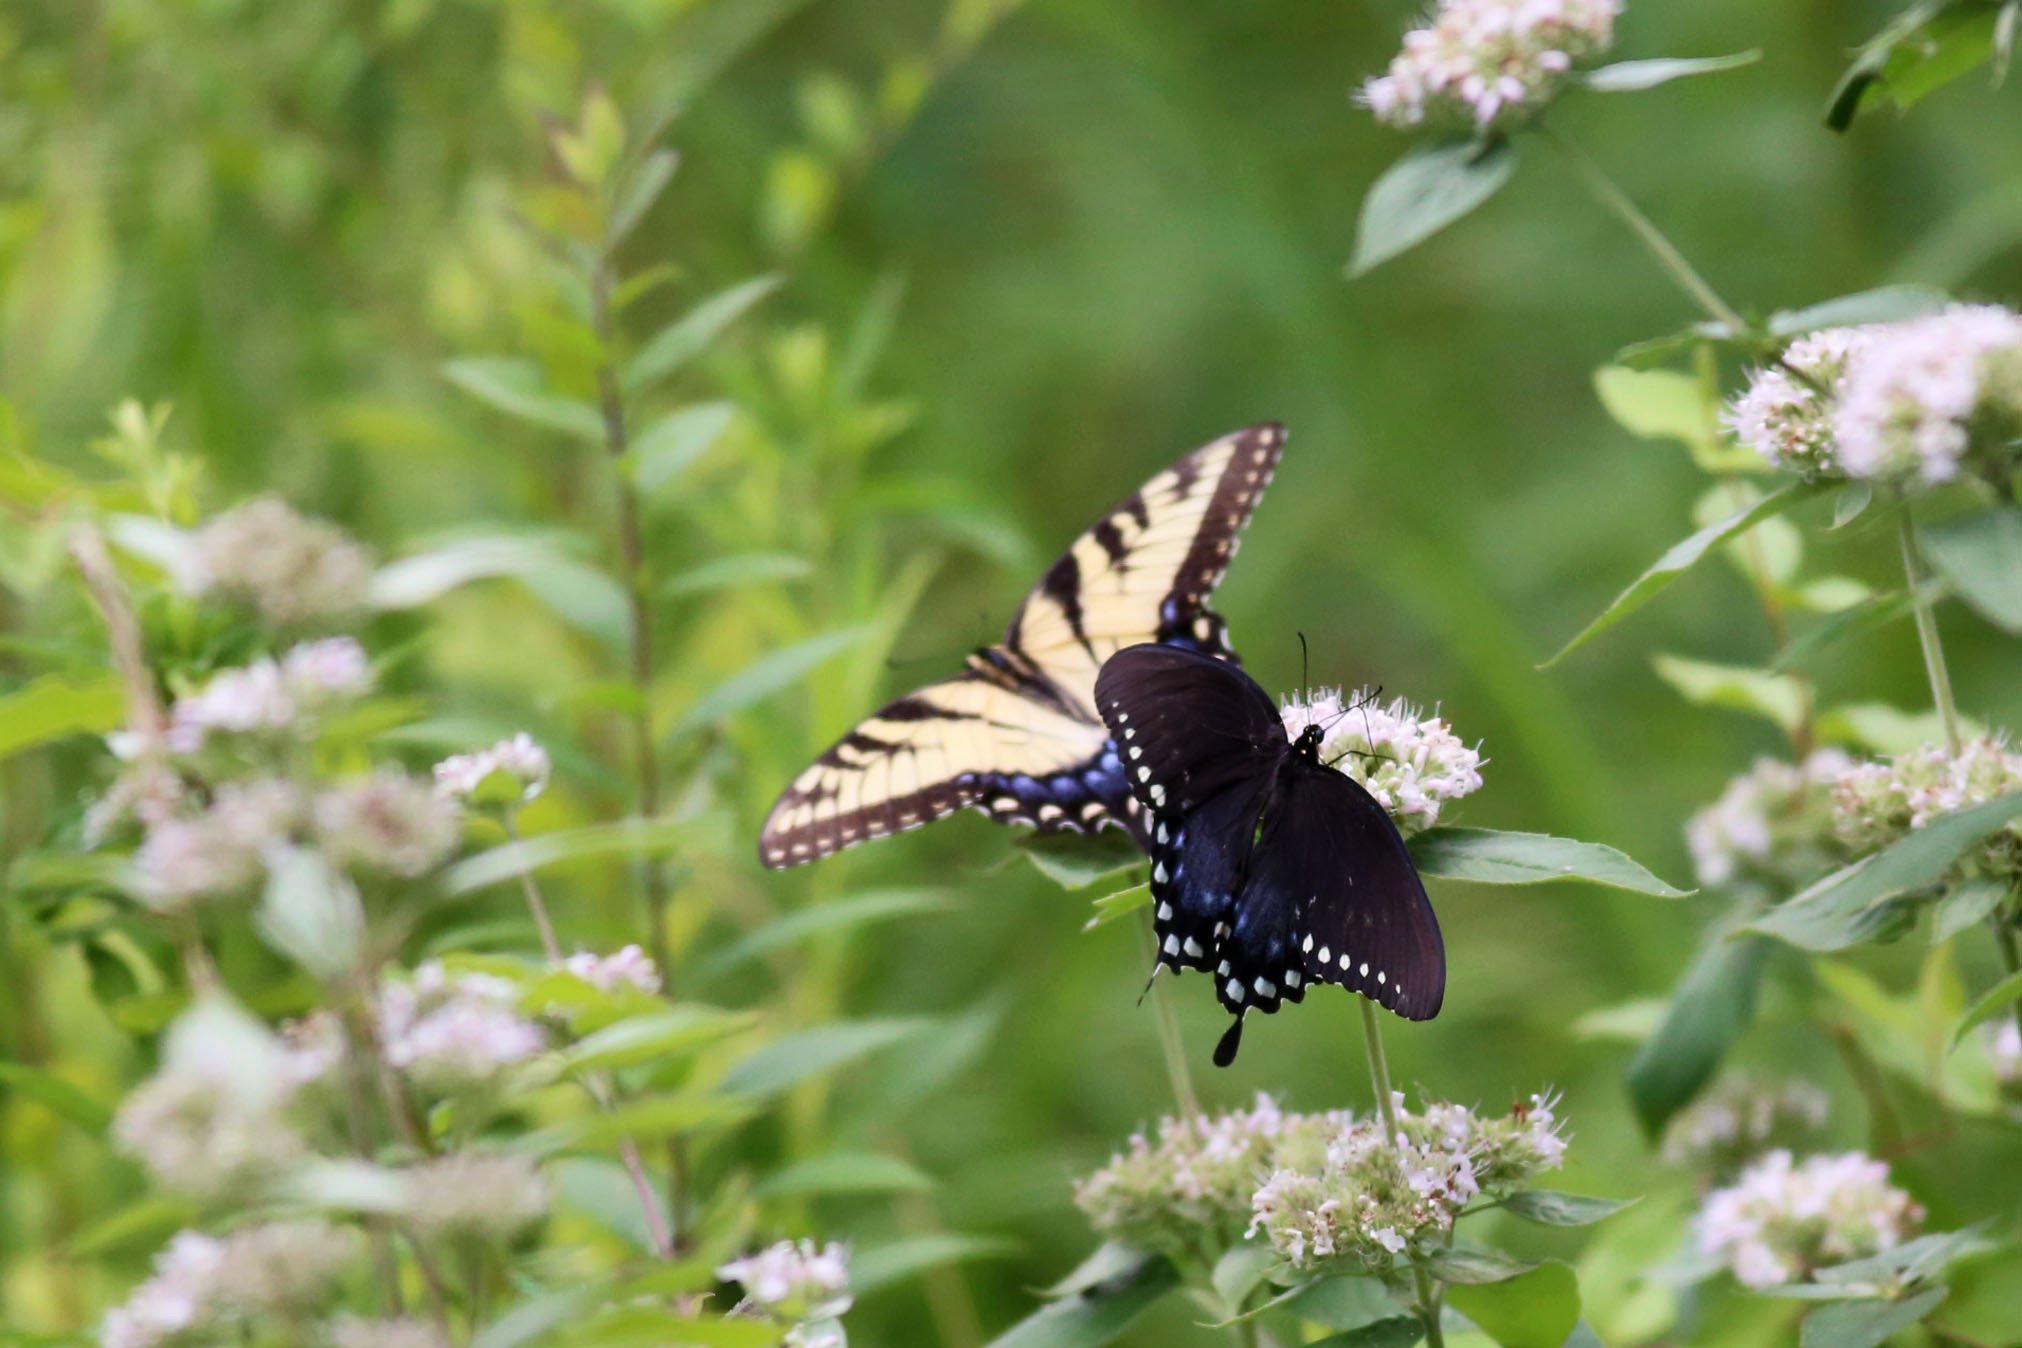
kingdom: Animalia
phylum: Arthropoda
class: Insecta
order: Lepidoptera
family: Papilionidae
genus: Papilio
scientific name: Papilio glaucus
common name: Tiger swallowtail
